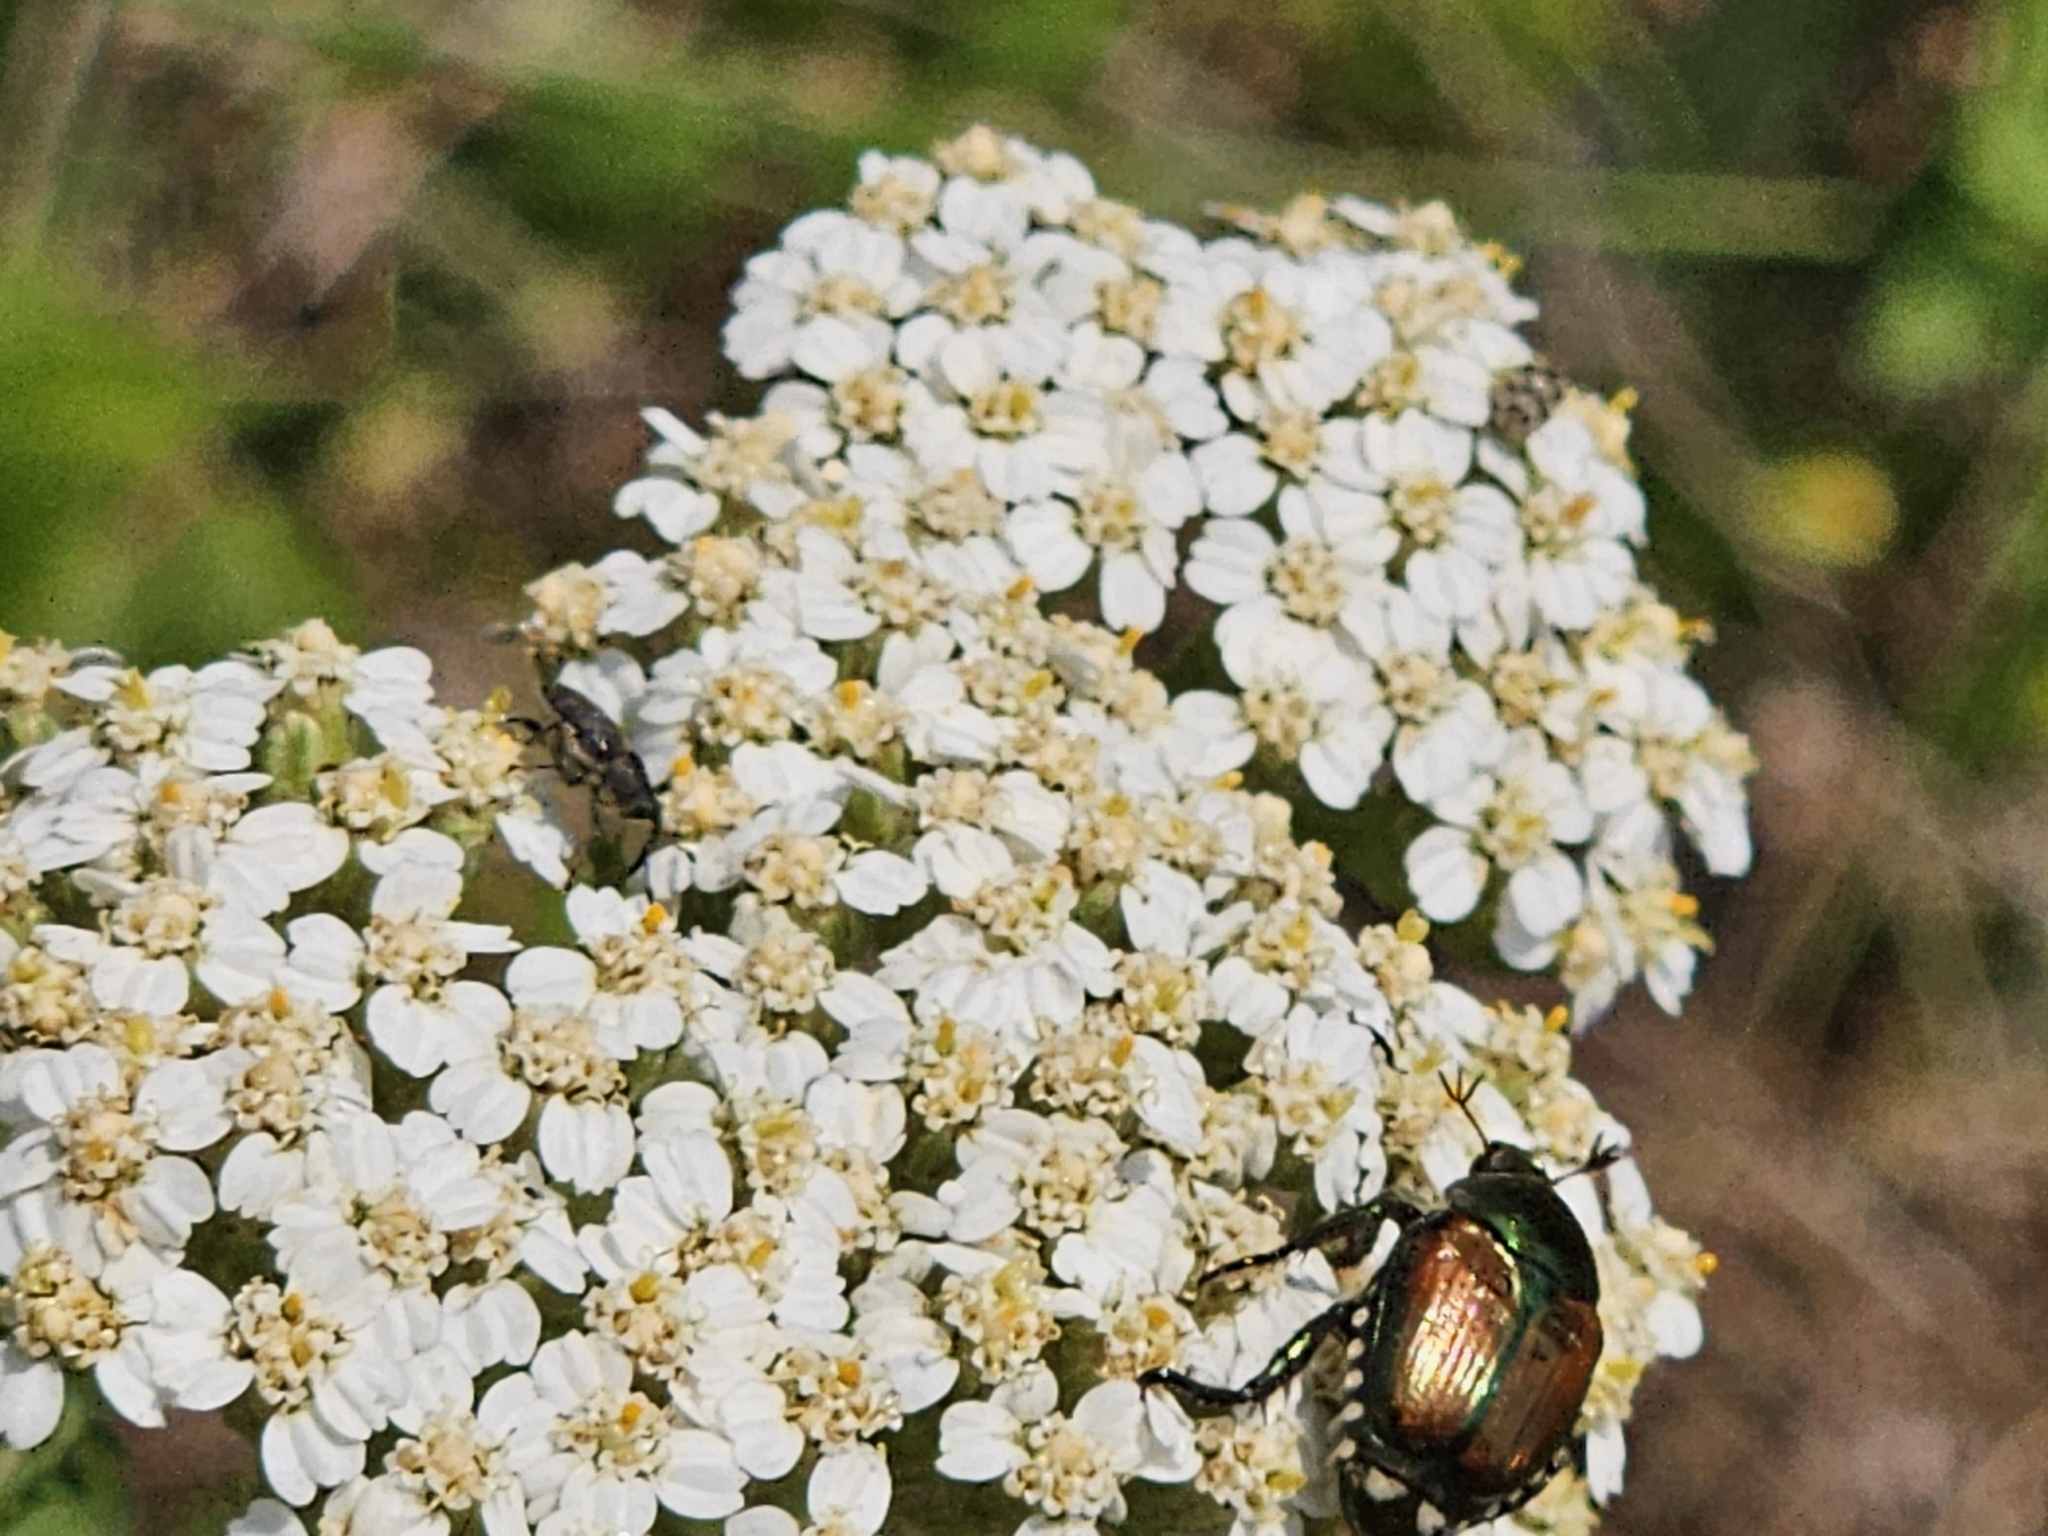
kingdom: Animalia
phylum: Arthropoda
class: Insecta
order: Coleoptera
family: Scarabaeidae
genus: Popillia
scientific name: Popillia japonica
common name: Japanese beetle
